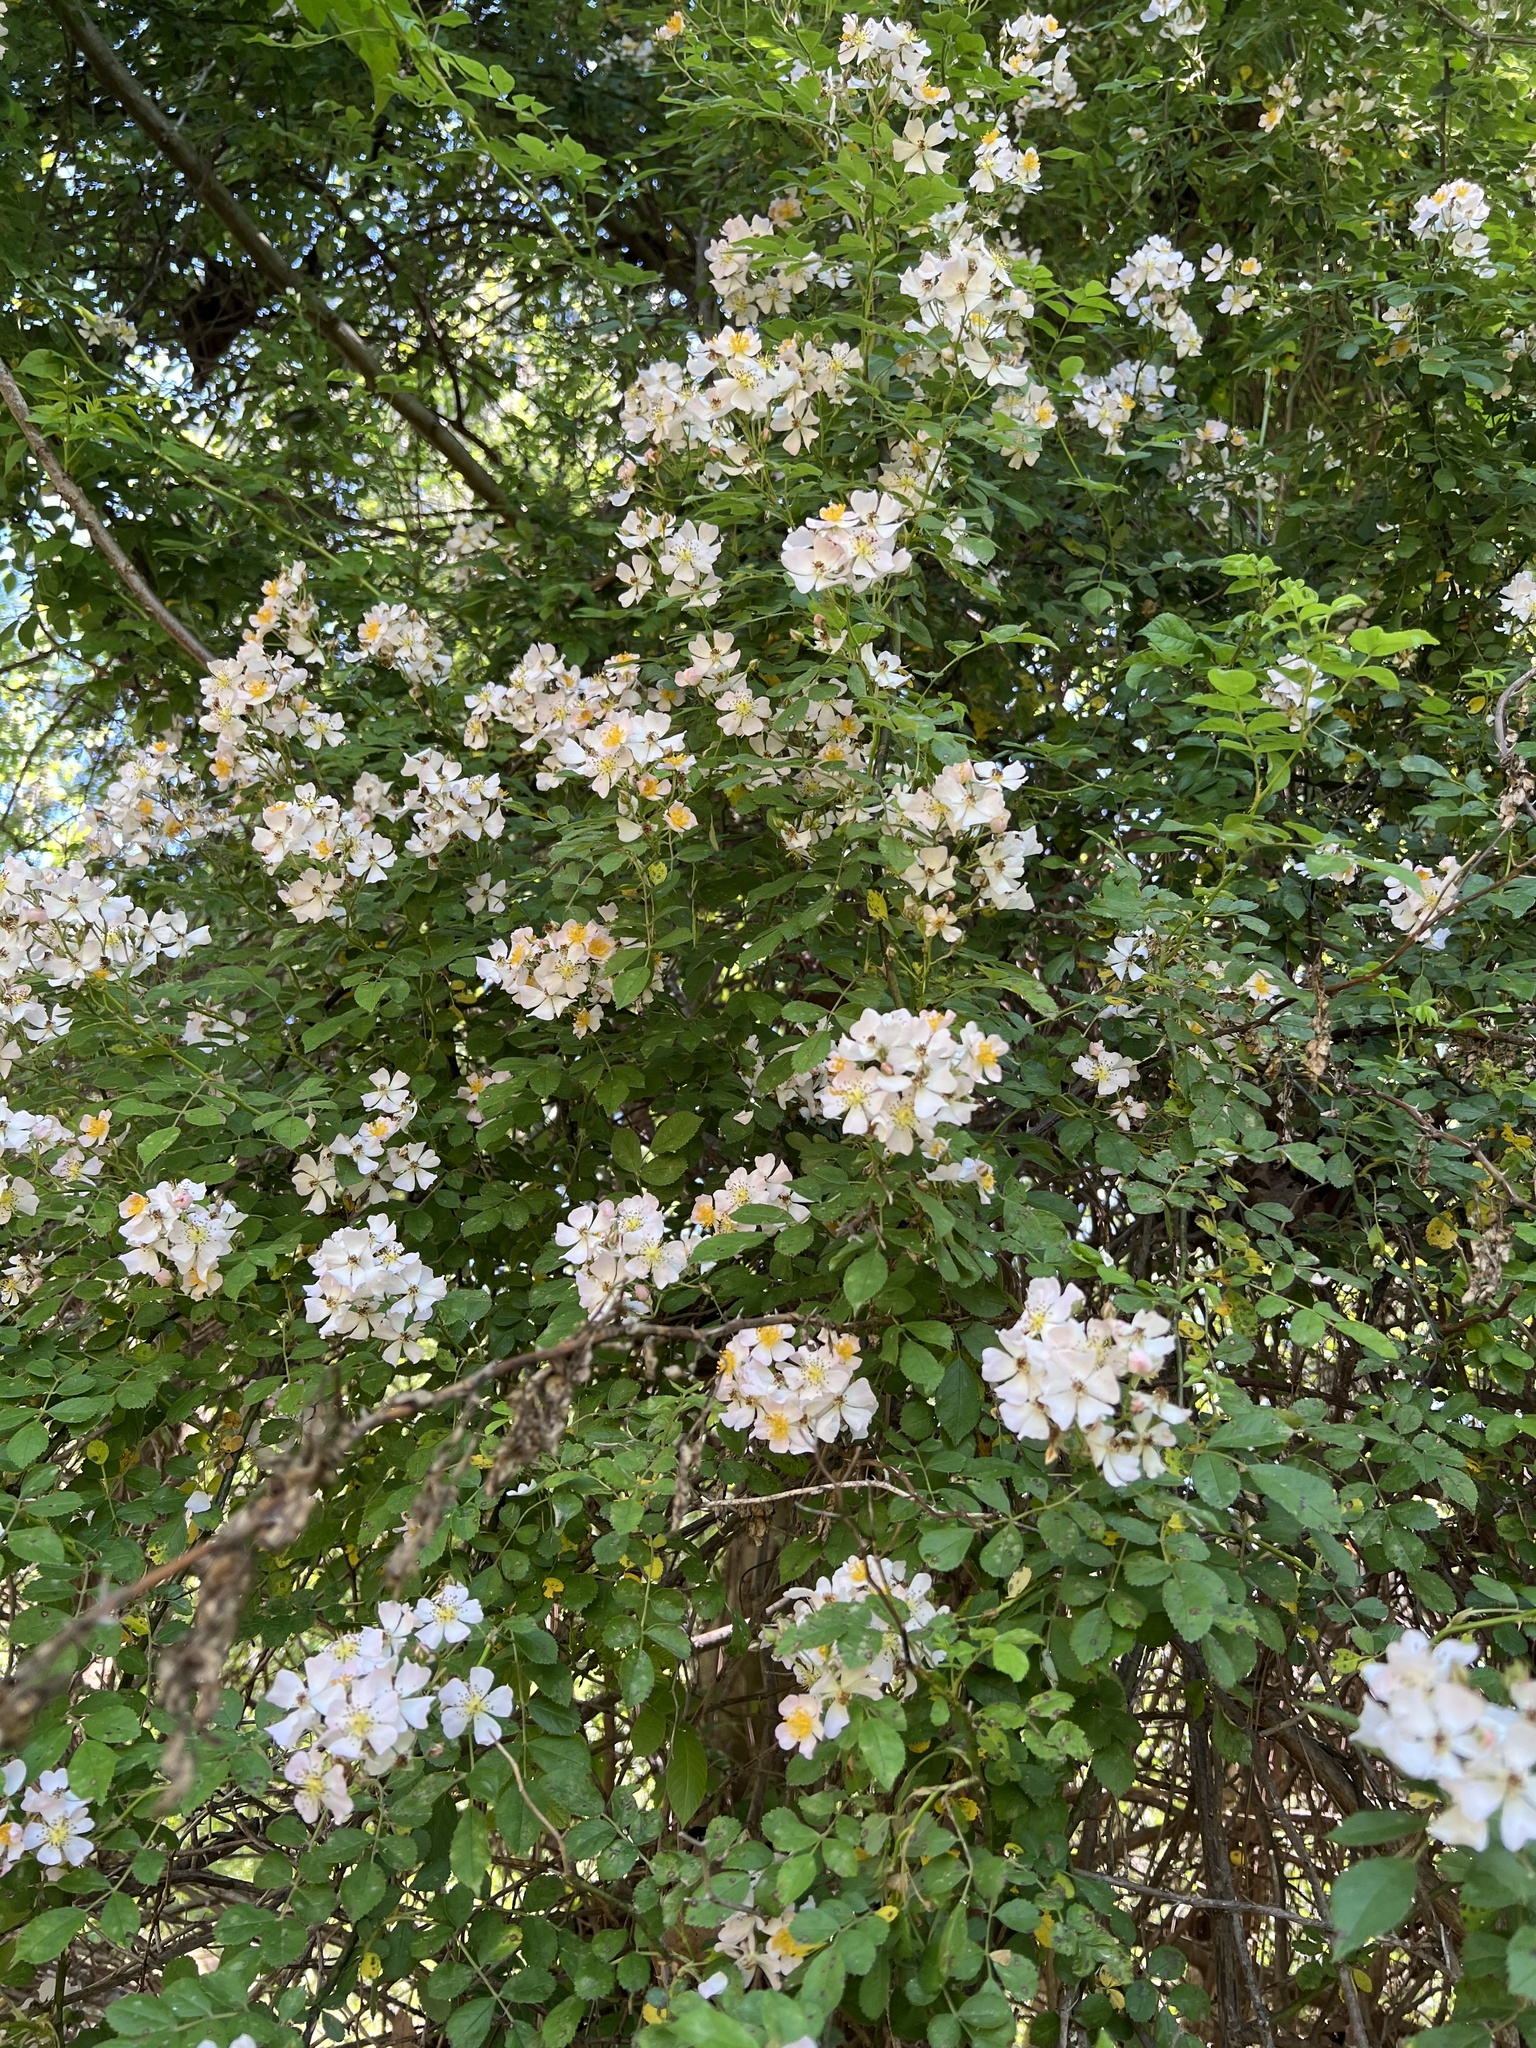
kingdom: Plantae
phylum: Tracheophyta
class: Magnoliopsida
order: Rosales
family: Rosaceae
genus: Rosa
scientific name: Rosa multiflora
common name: Multiflora rose
